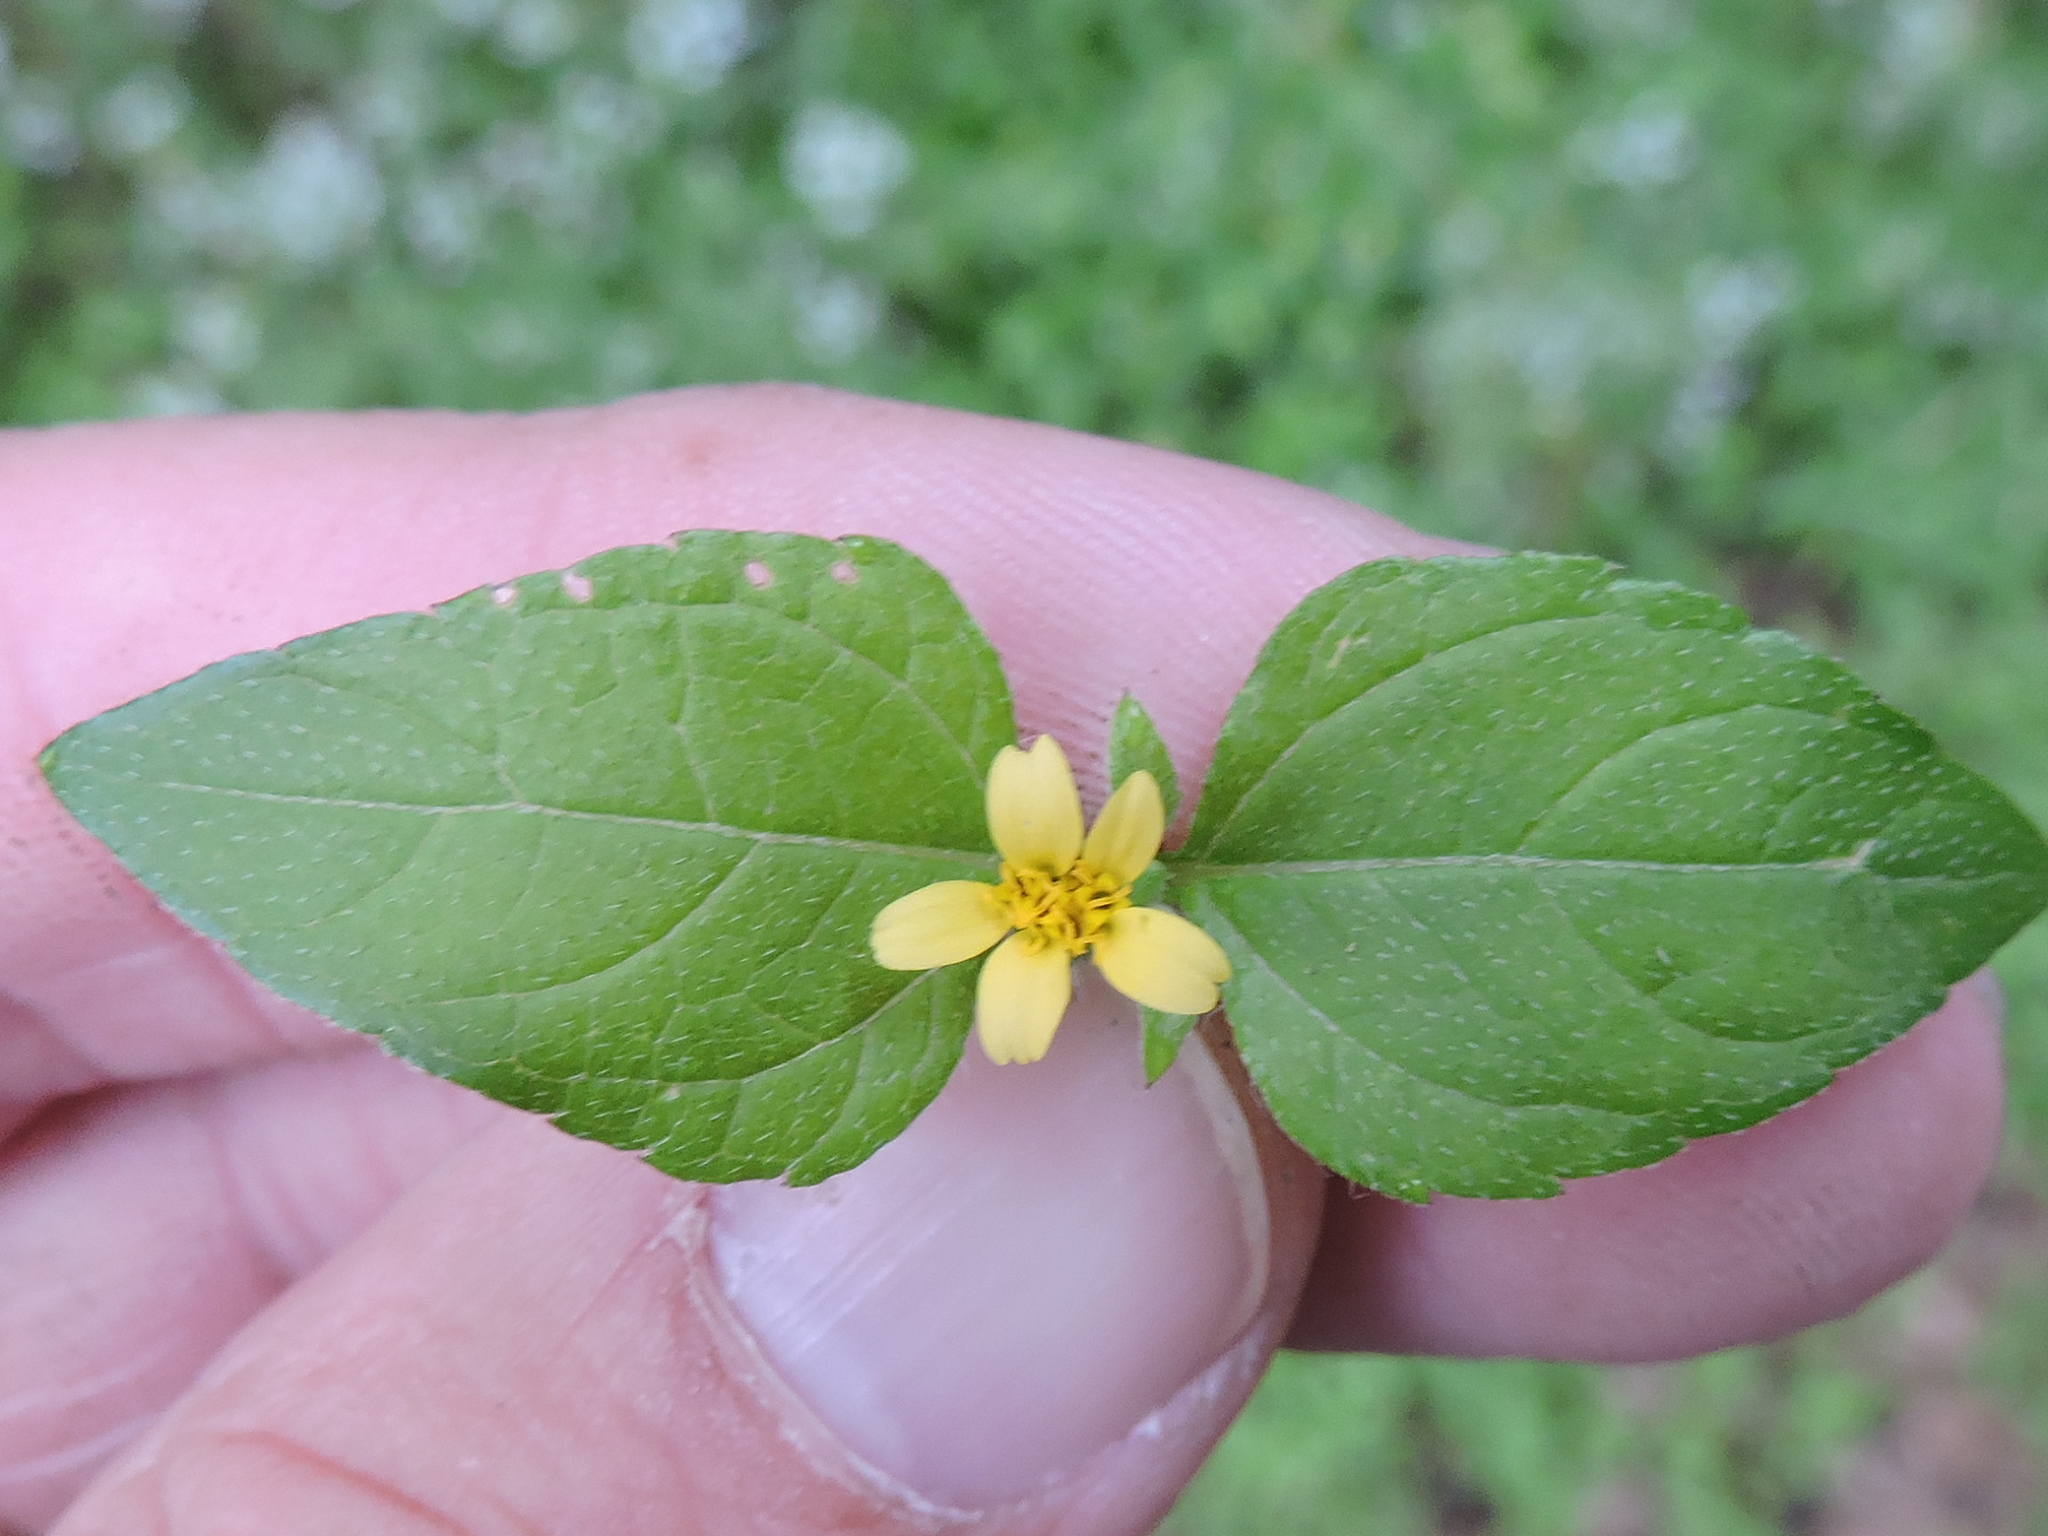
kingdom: Plantae
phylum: Tracheophyta
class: Magnoliopsida
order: Asterales
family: Asteraceae
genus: Calyptocarpus
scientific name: Calyptocarpus vialis
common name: Straggler daisy
